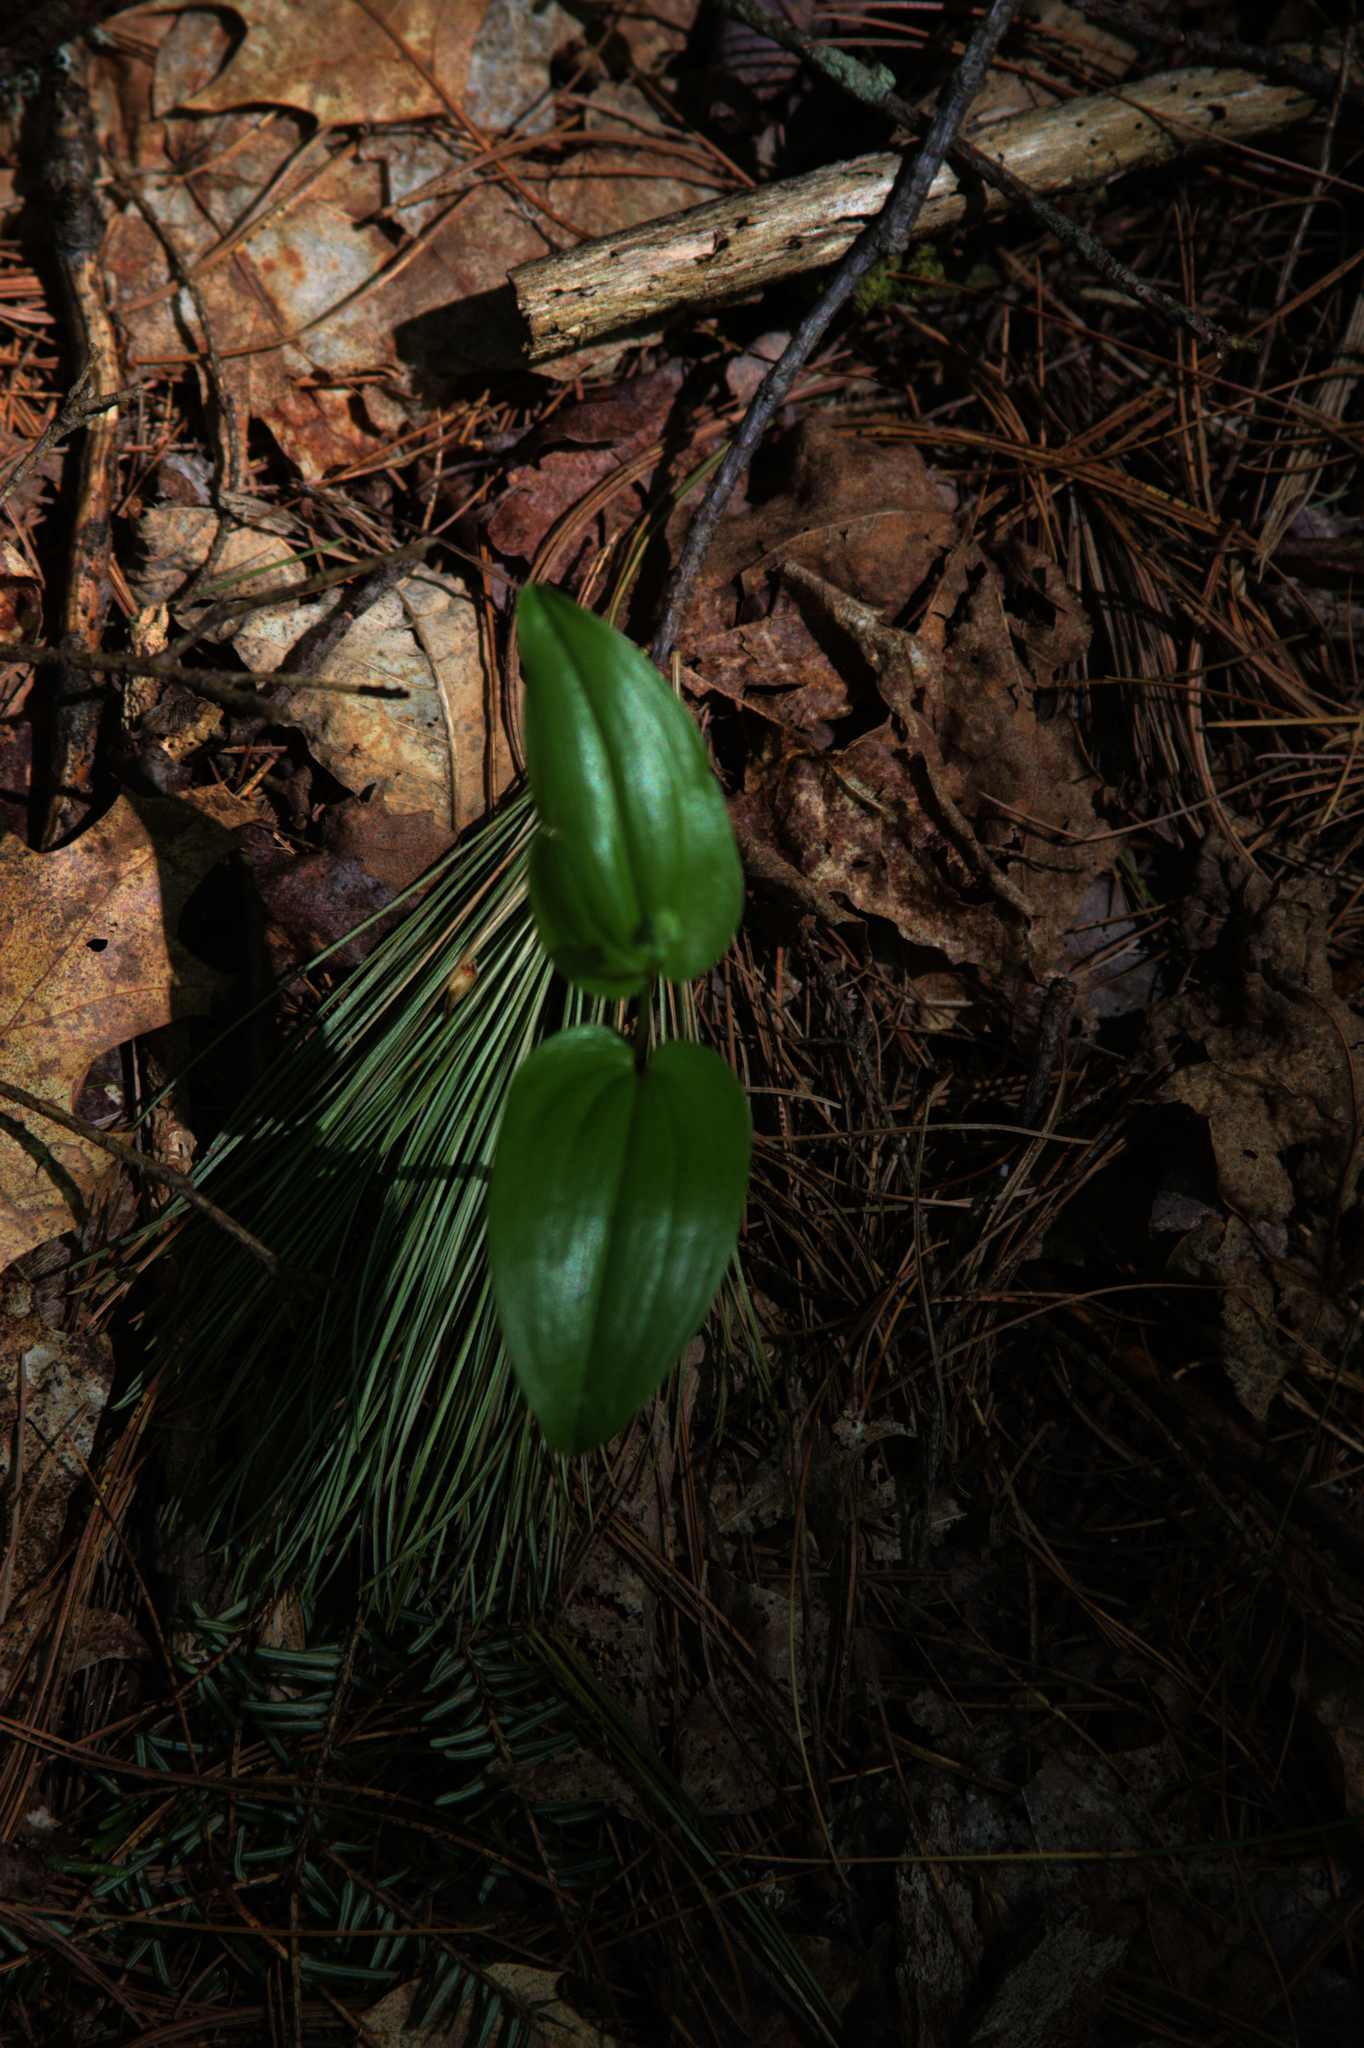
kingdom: Plantae
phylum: Tracheophyta
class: Liliopsida
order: Asparagales
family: Asparagaceae
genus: Maianthemum
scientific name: Maianthemum canadense
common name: False lily-of-the-valley
